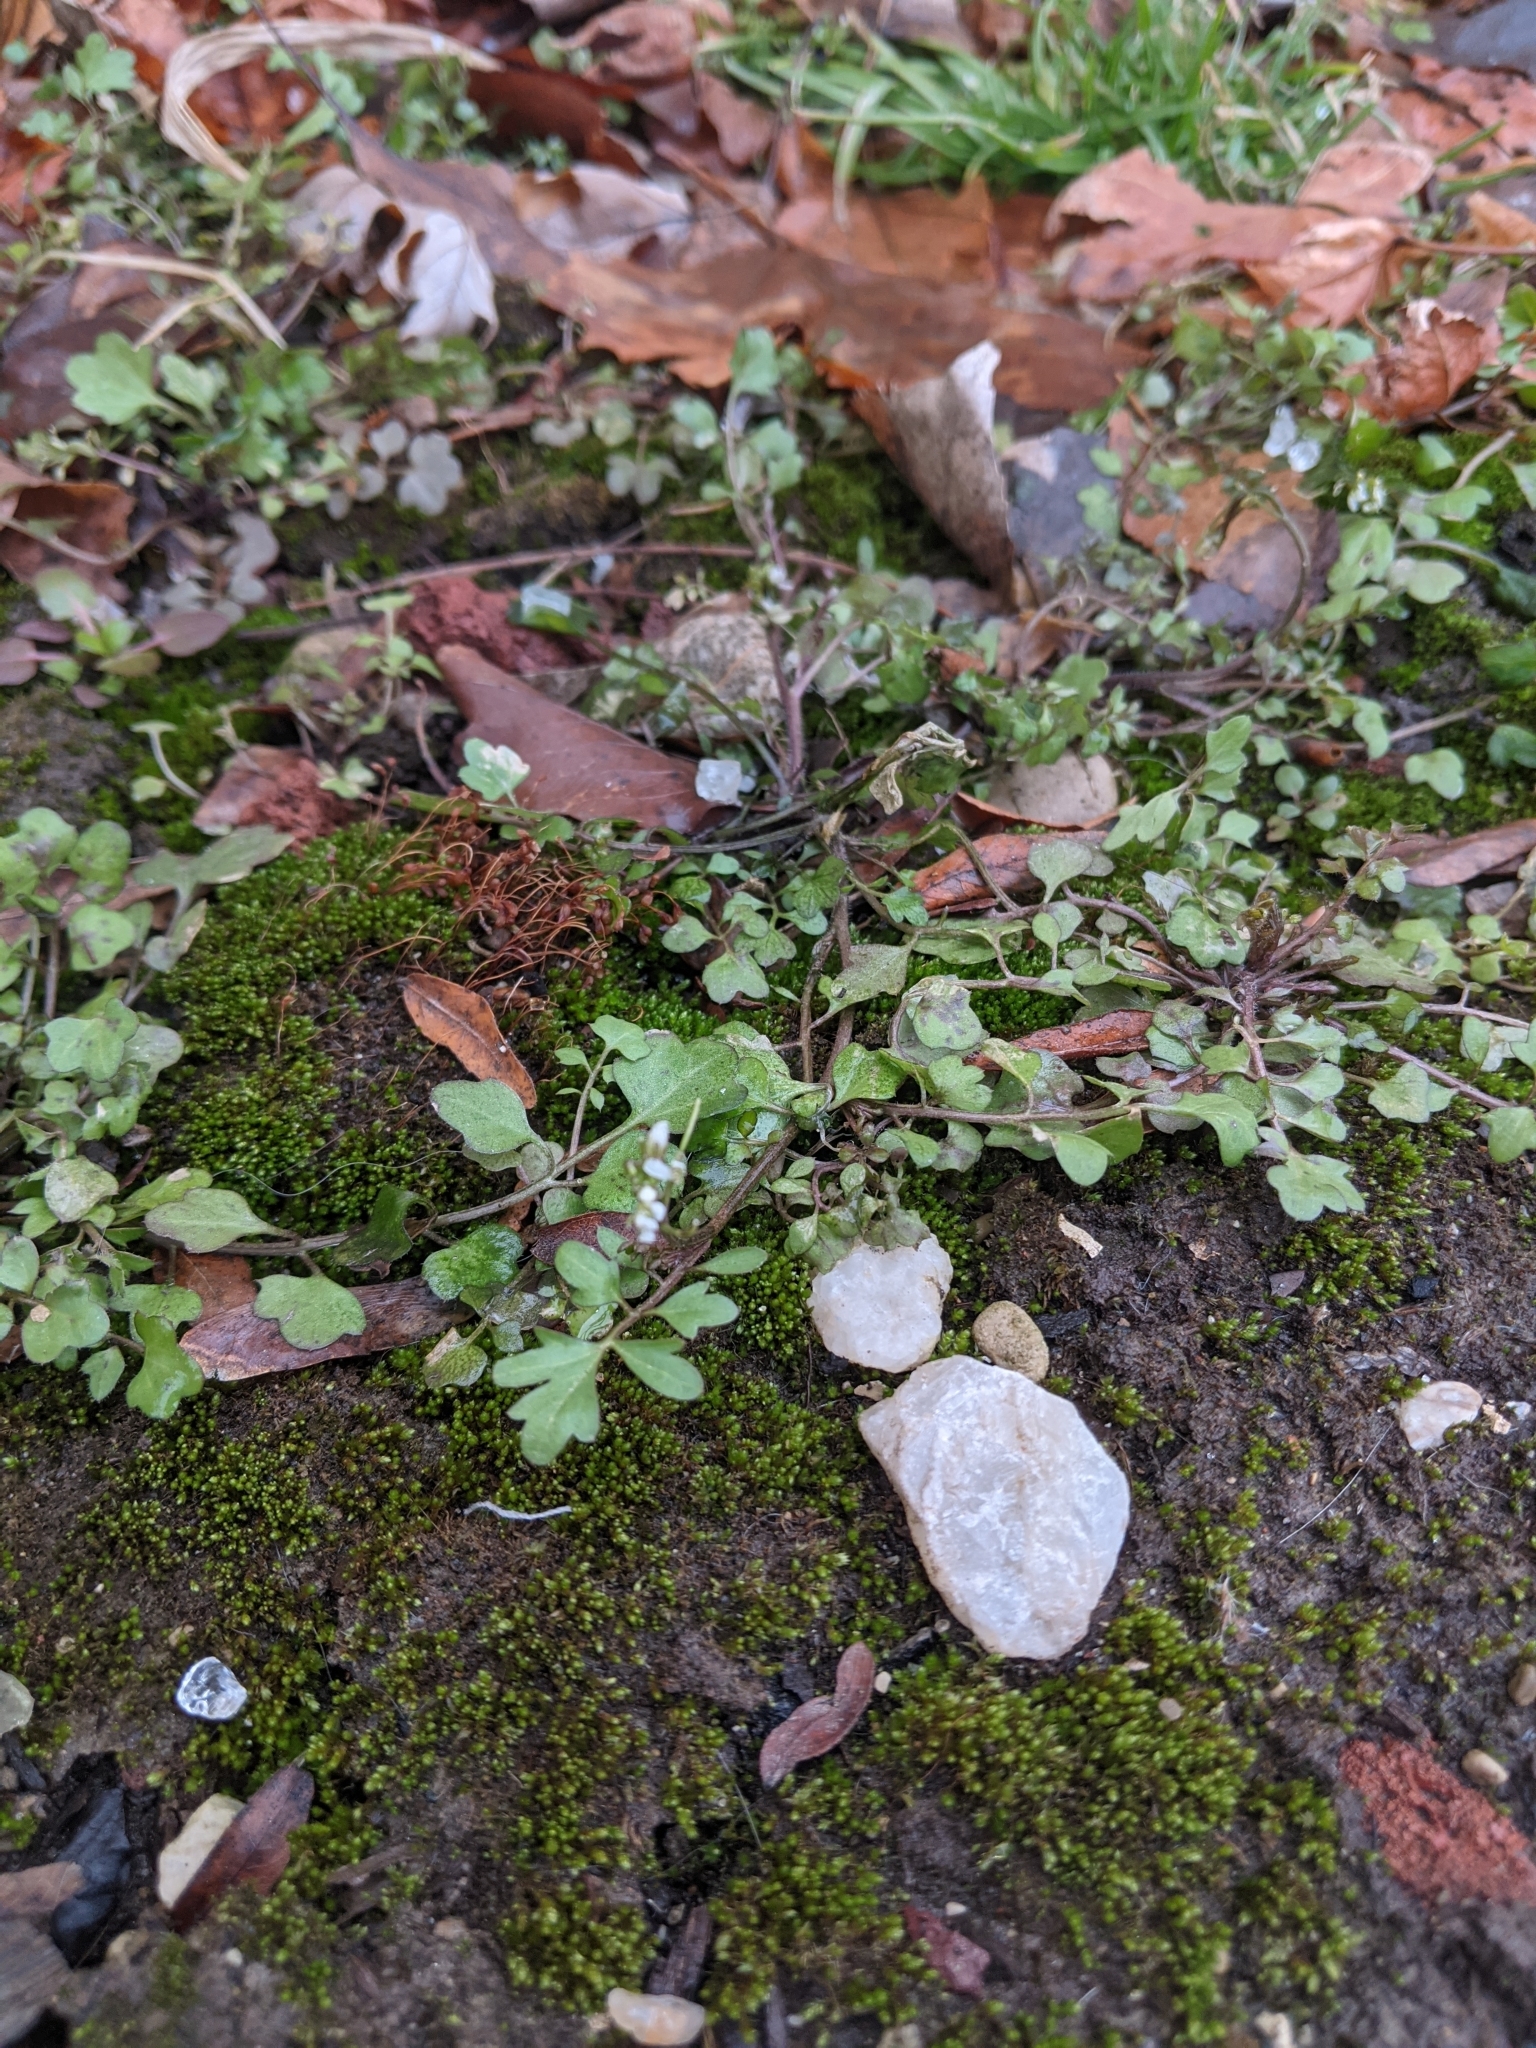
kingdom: Plantae
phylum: Tracheophyta
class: Magnoliopsida
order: Brassicales
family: Brassicaceae
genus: Cardamine
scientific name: Cardamine hirsuta
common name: Hairy bittercress
